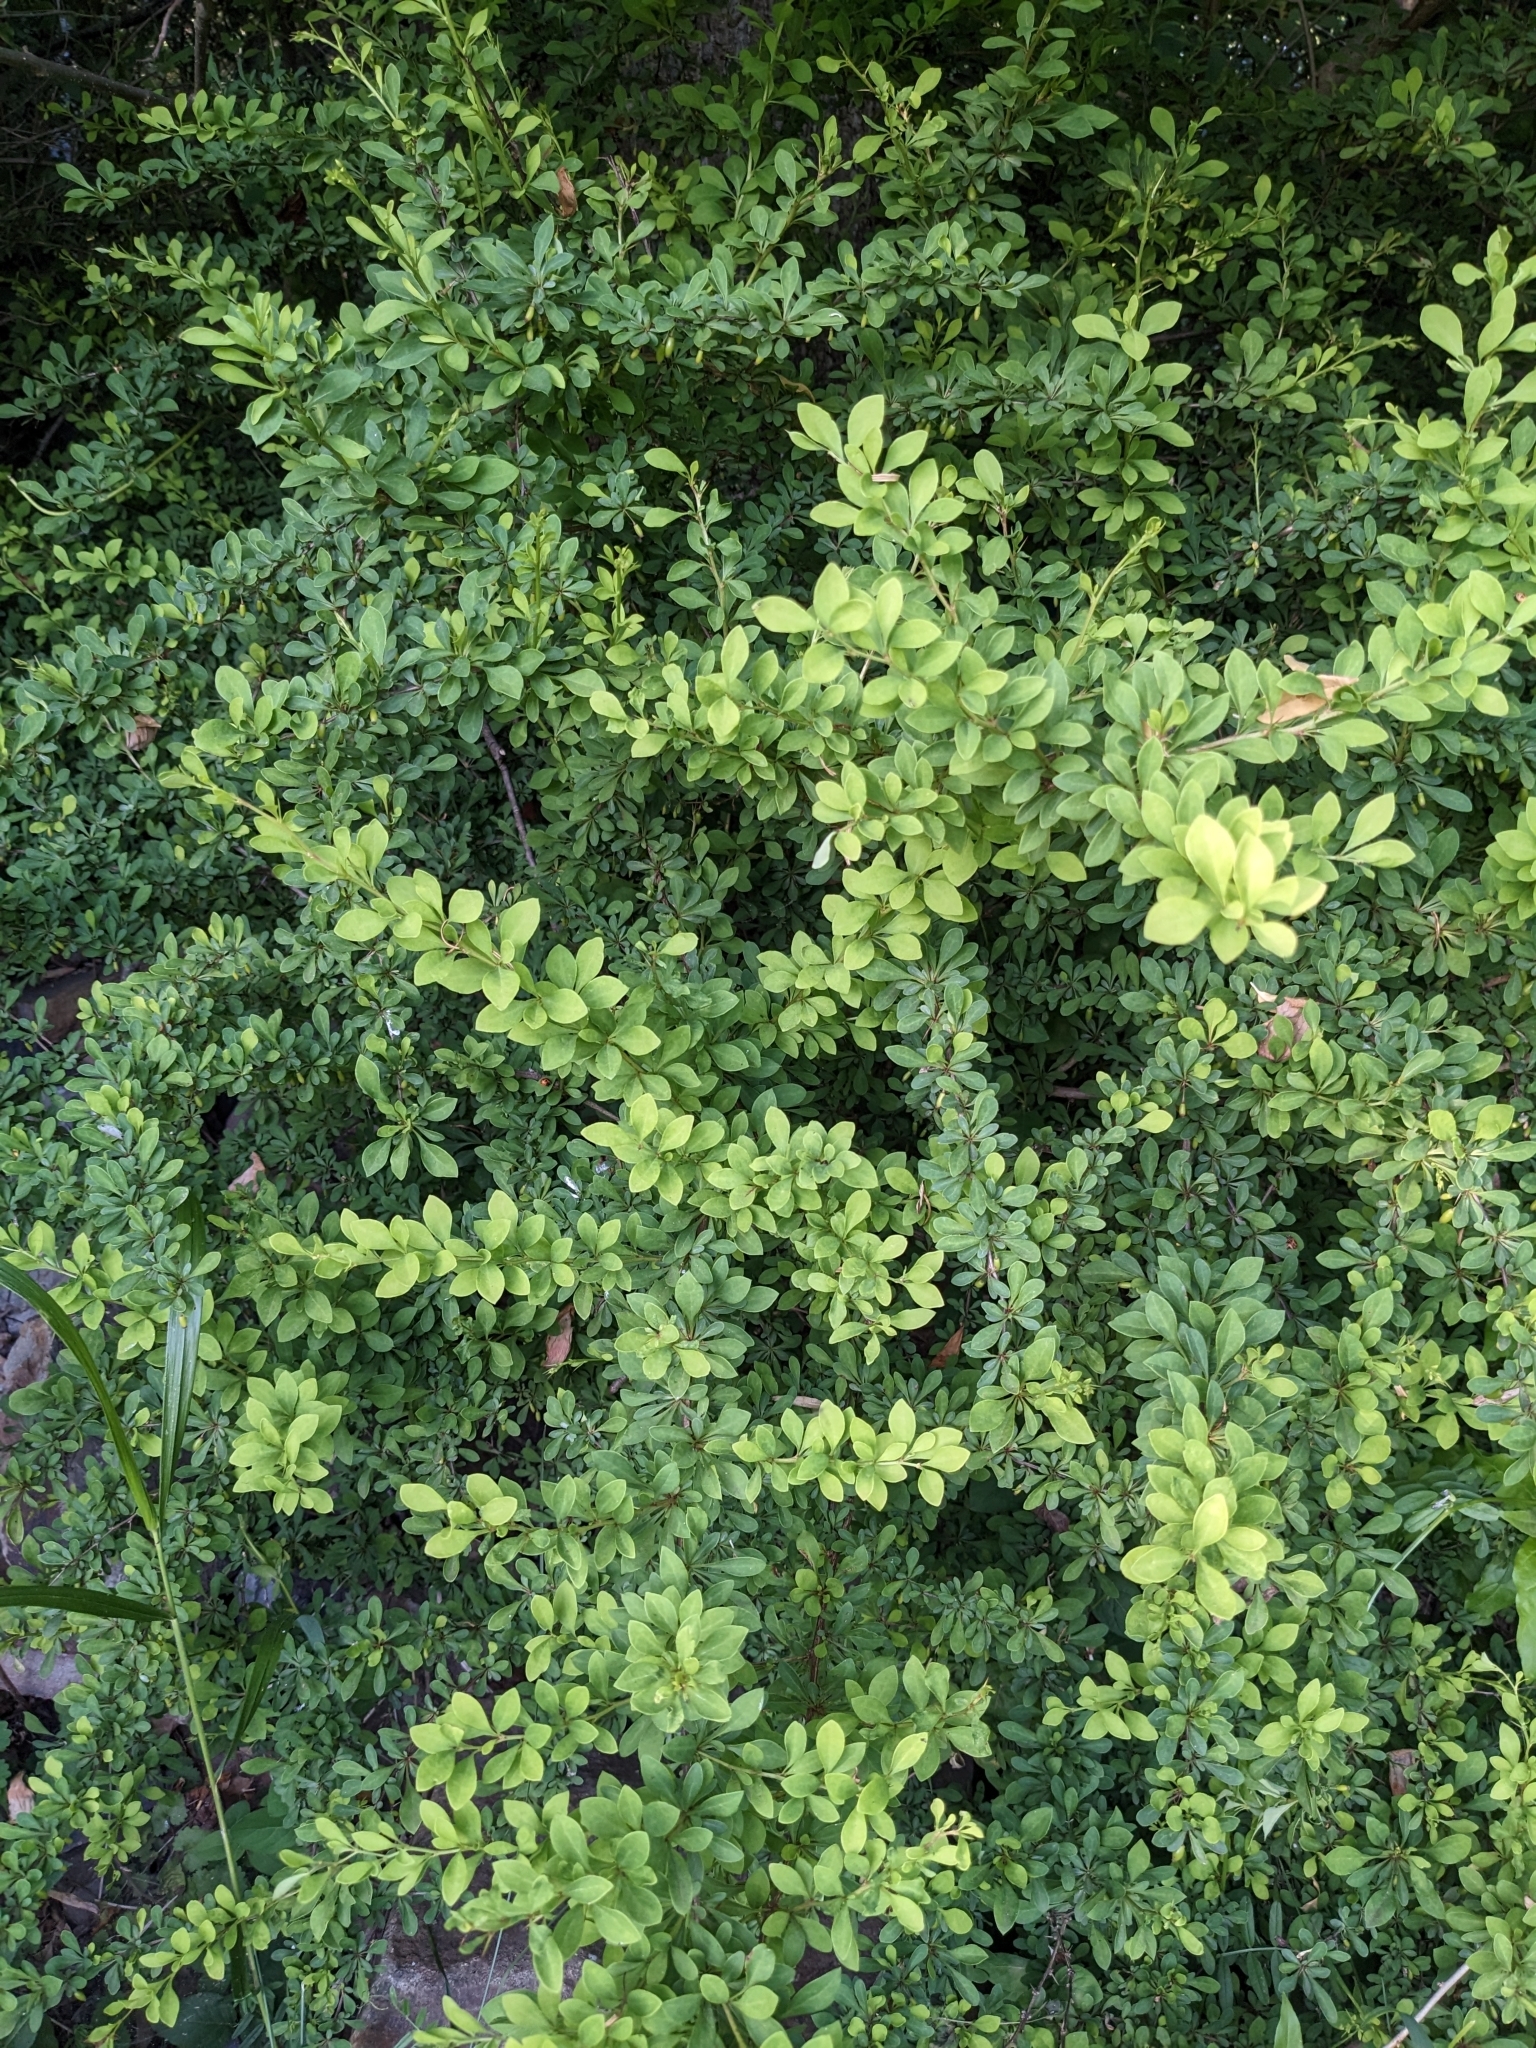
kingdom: Plantae
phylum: Tracheophyta
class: Magnoliopsida
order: Ranunculales
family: Berberidaceae
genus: Berberis
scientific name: Berberis thunbergii
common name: Japanese barberry
